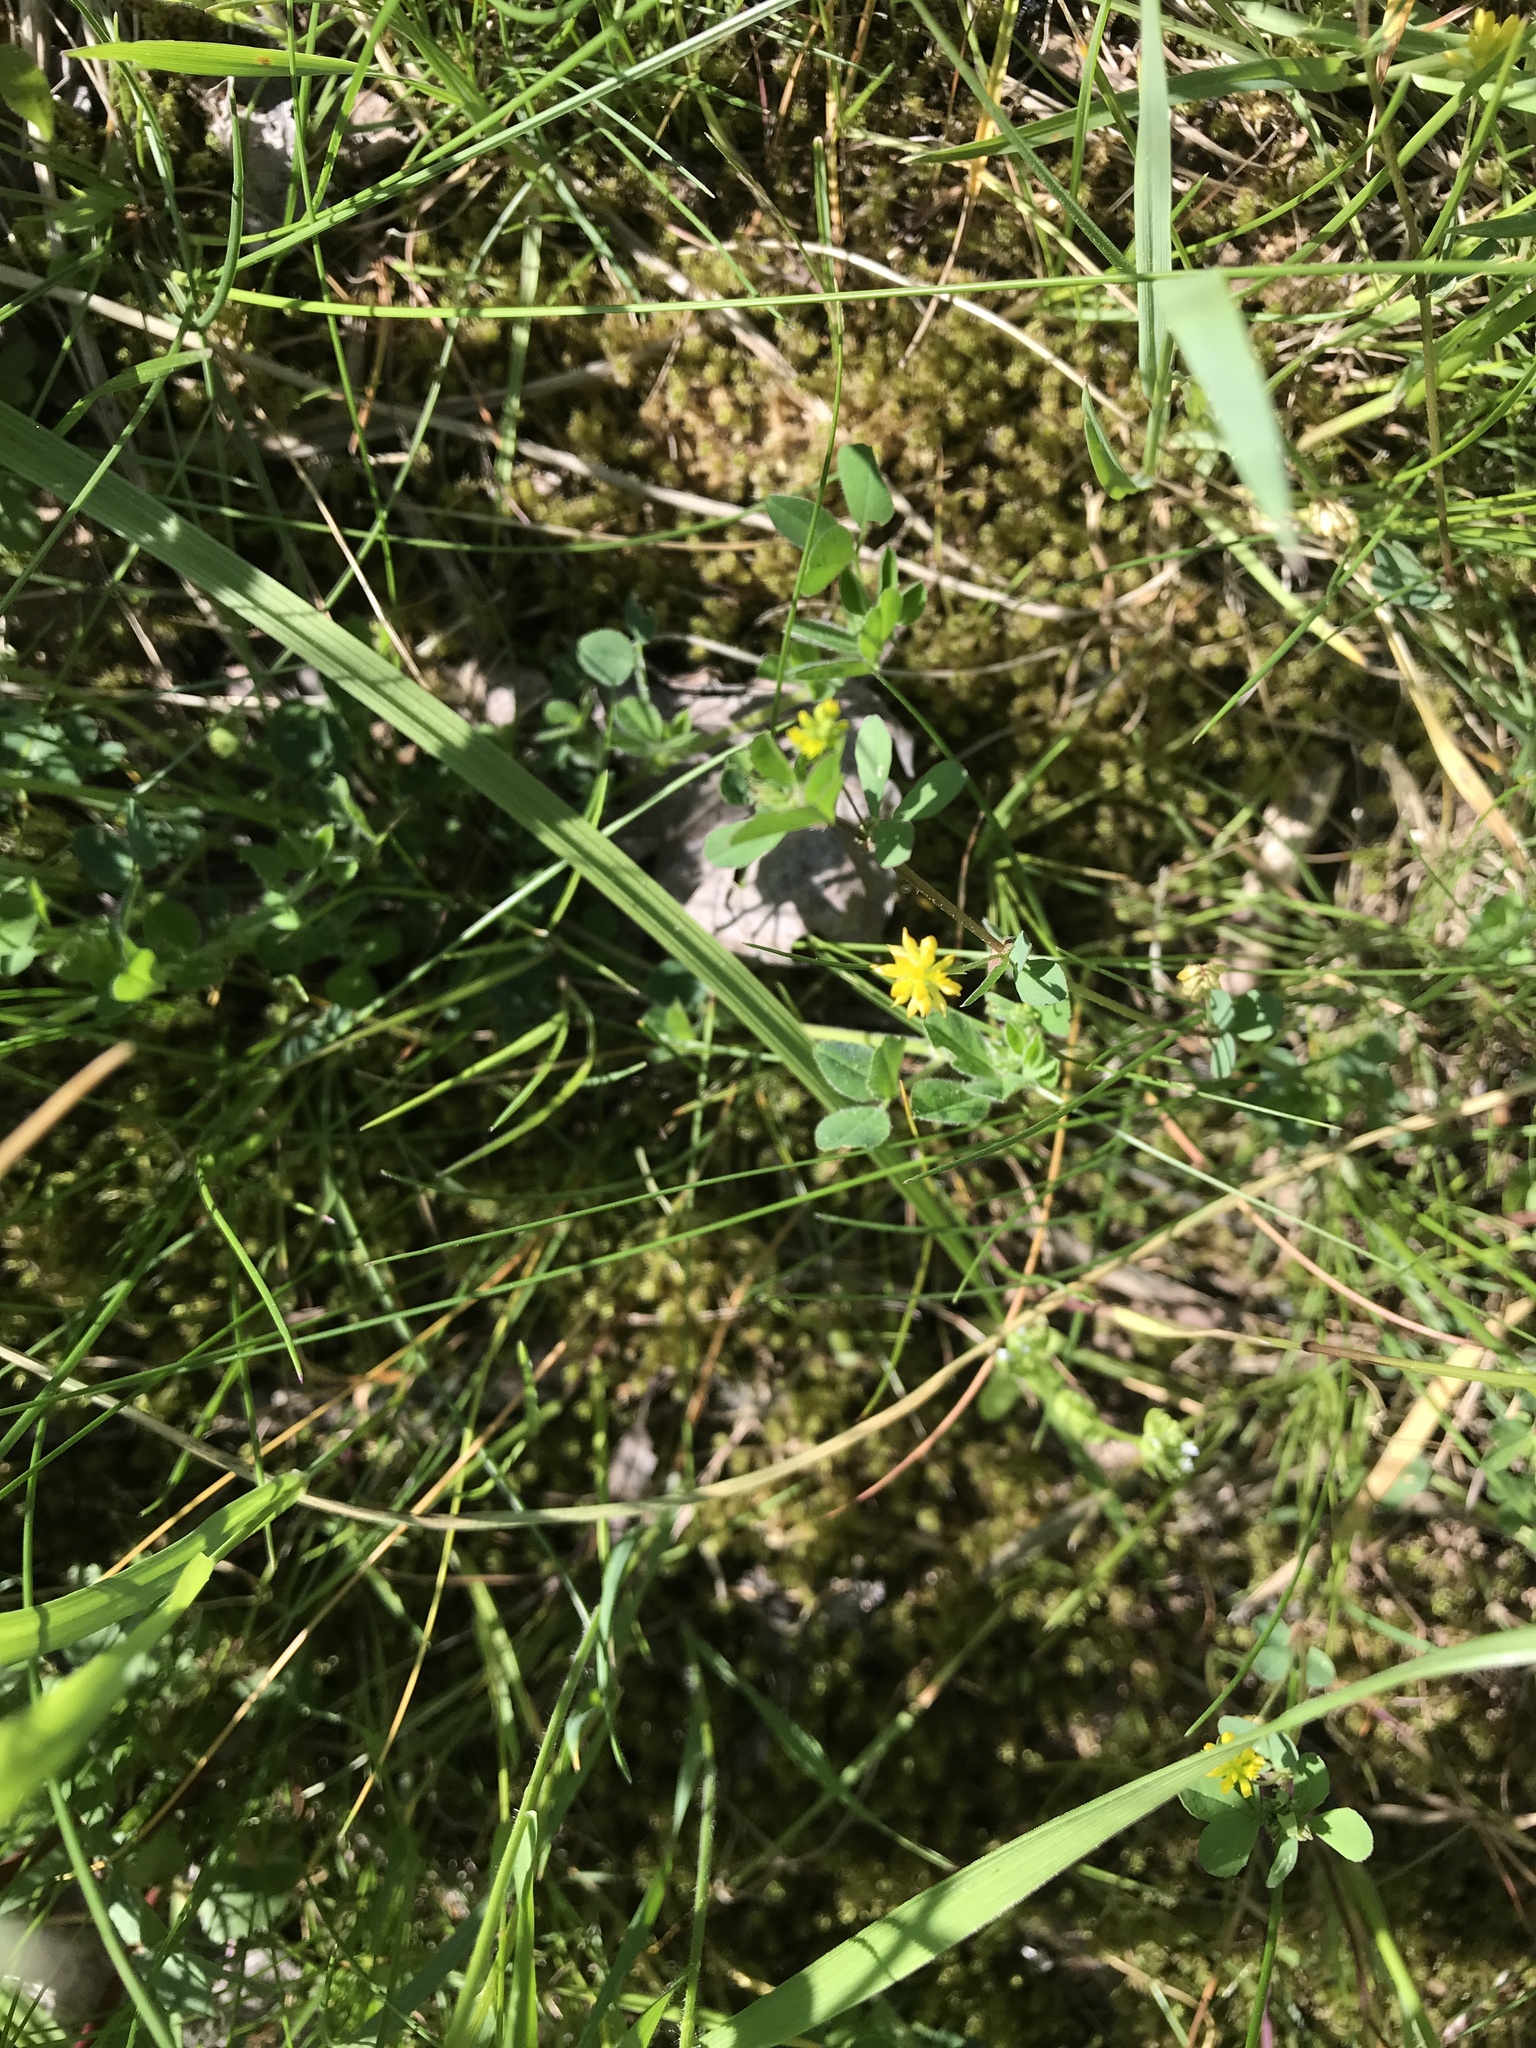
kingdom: Plantae
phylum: Tracheophyta
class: Magnoliopsida
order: Fabales
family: Fabaceae
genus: Trifolium
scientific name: Trifolium dubium
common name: Suckling clover
